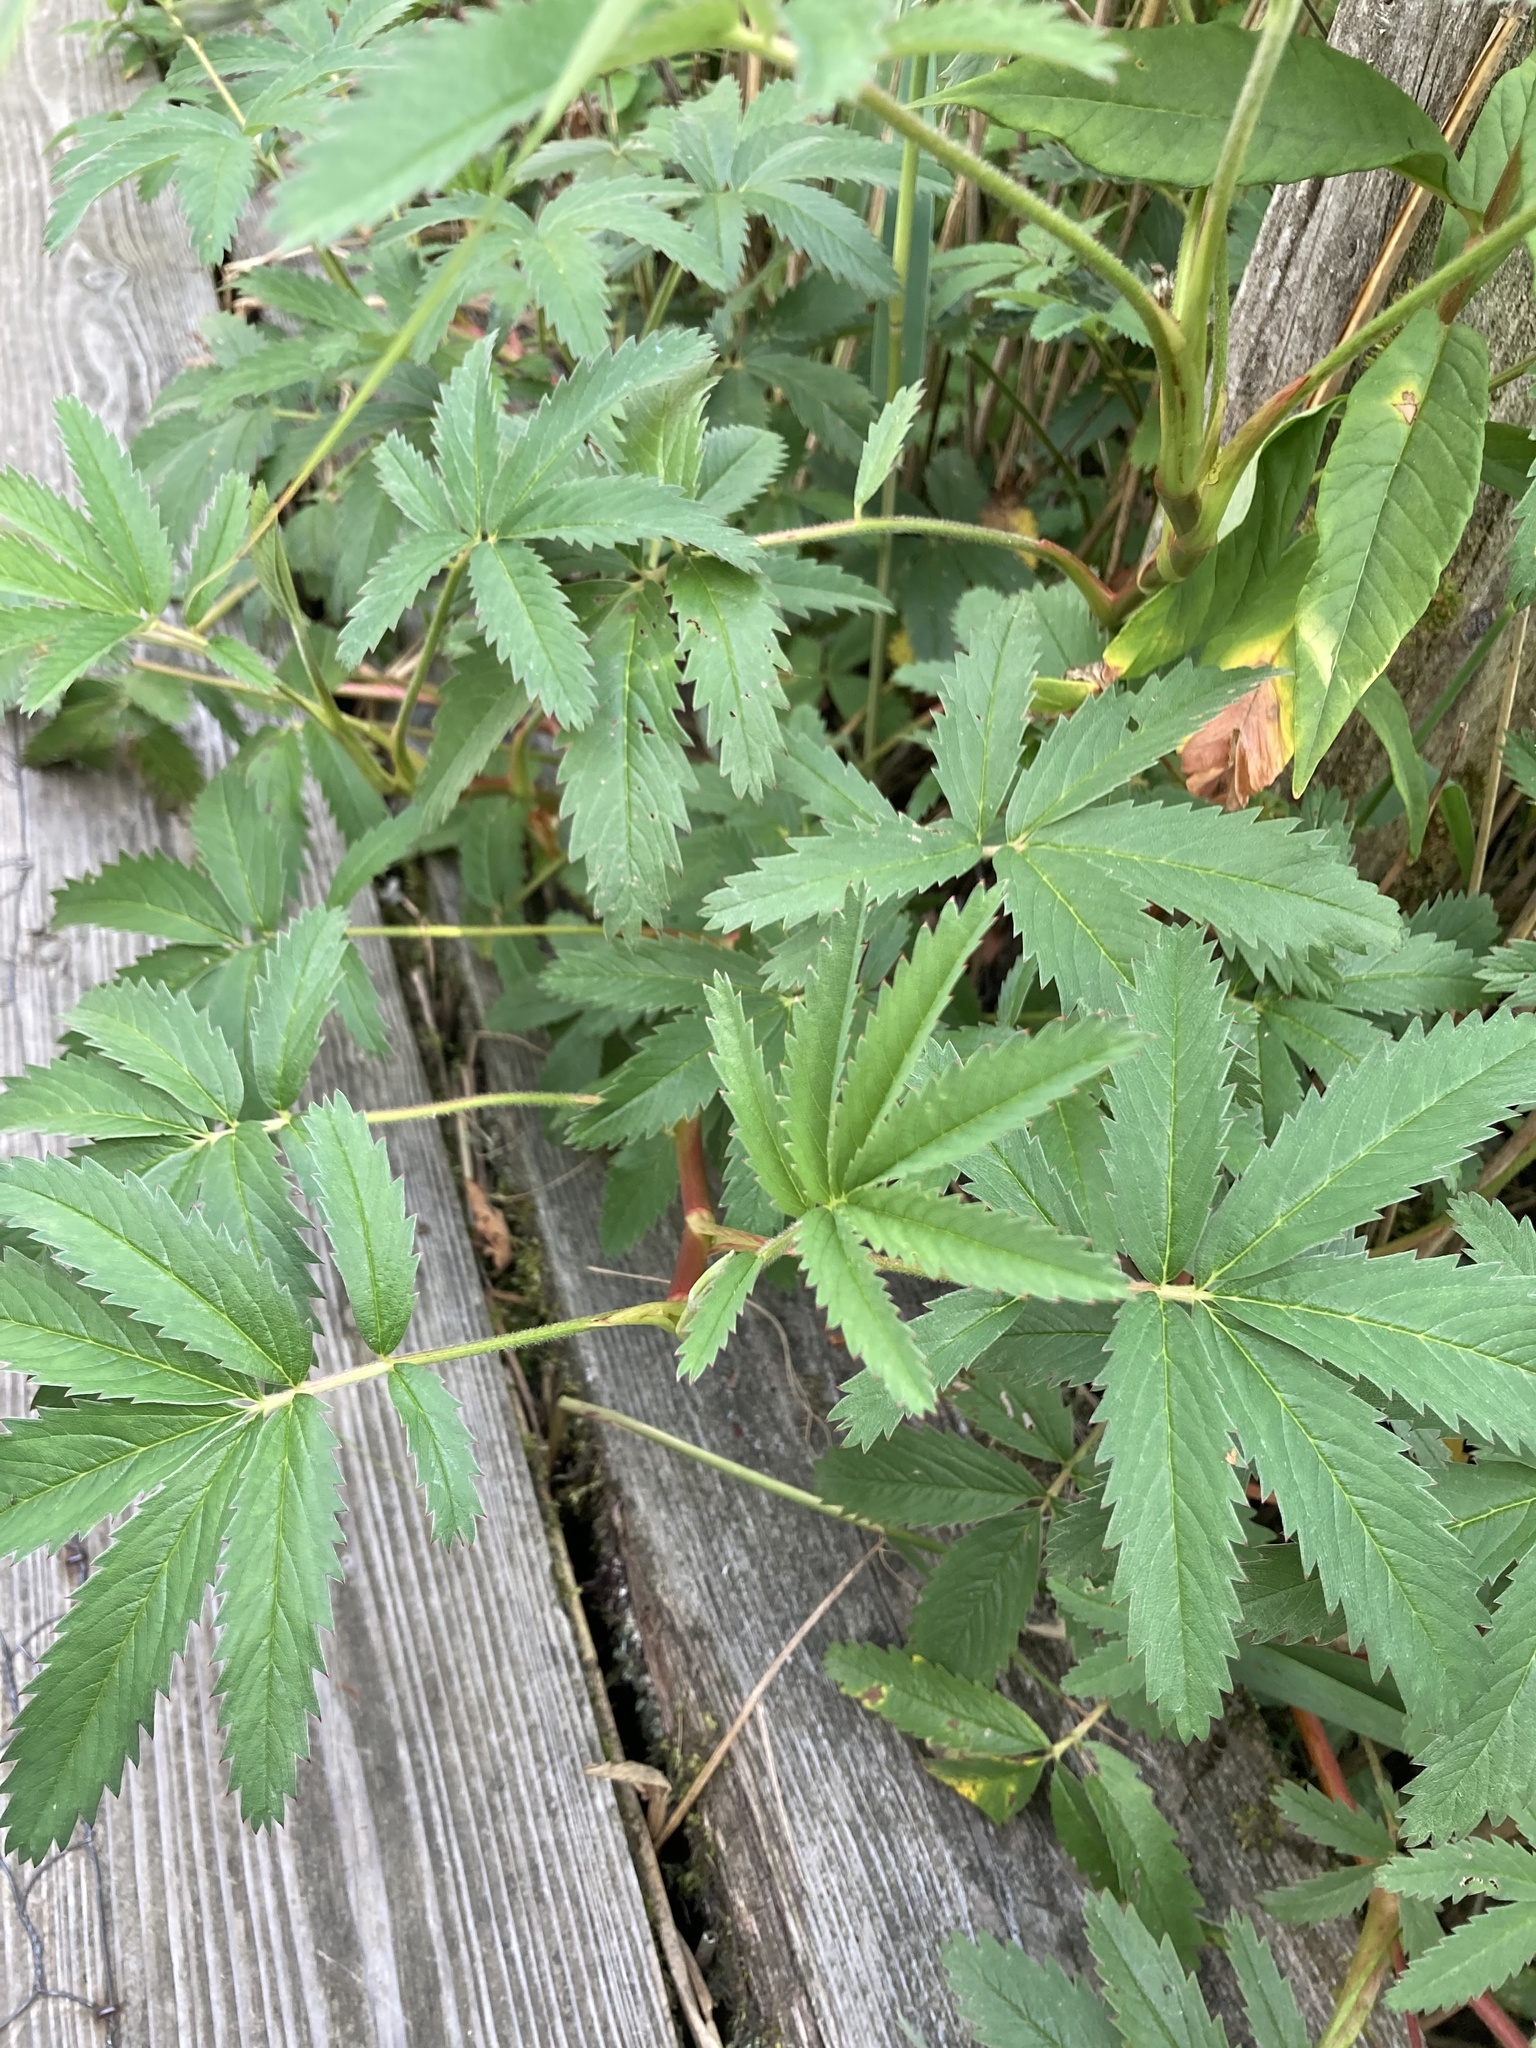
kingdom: Plantae
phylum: Tracheophyta
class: Magnoliopsida
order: Rosales
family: Rosaceae
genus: Comarum
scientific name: Comarum palustre
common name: Marsh cinquefoil
